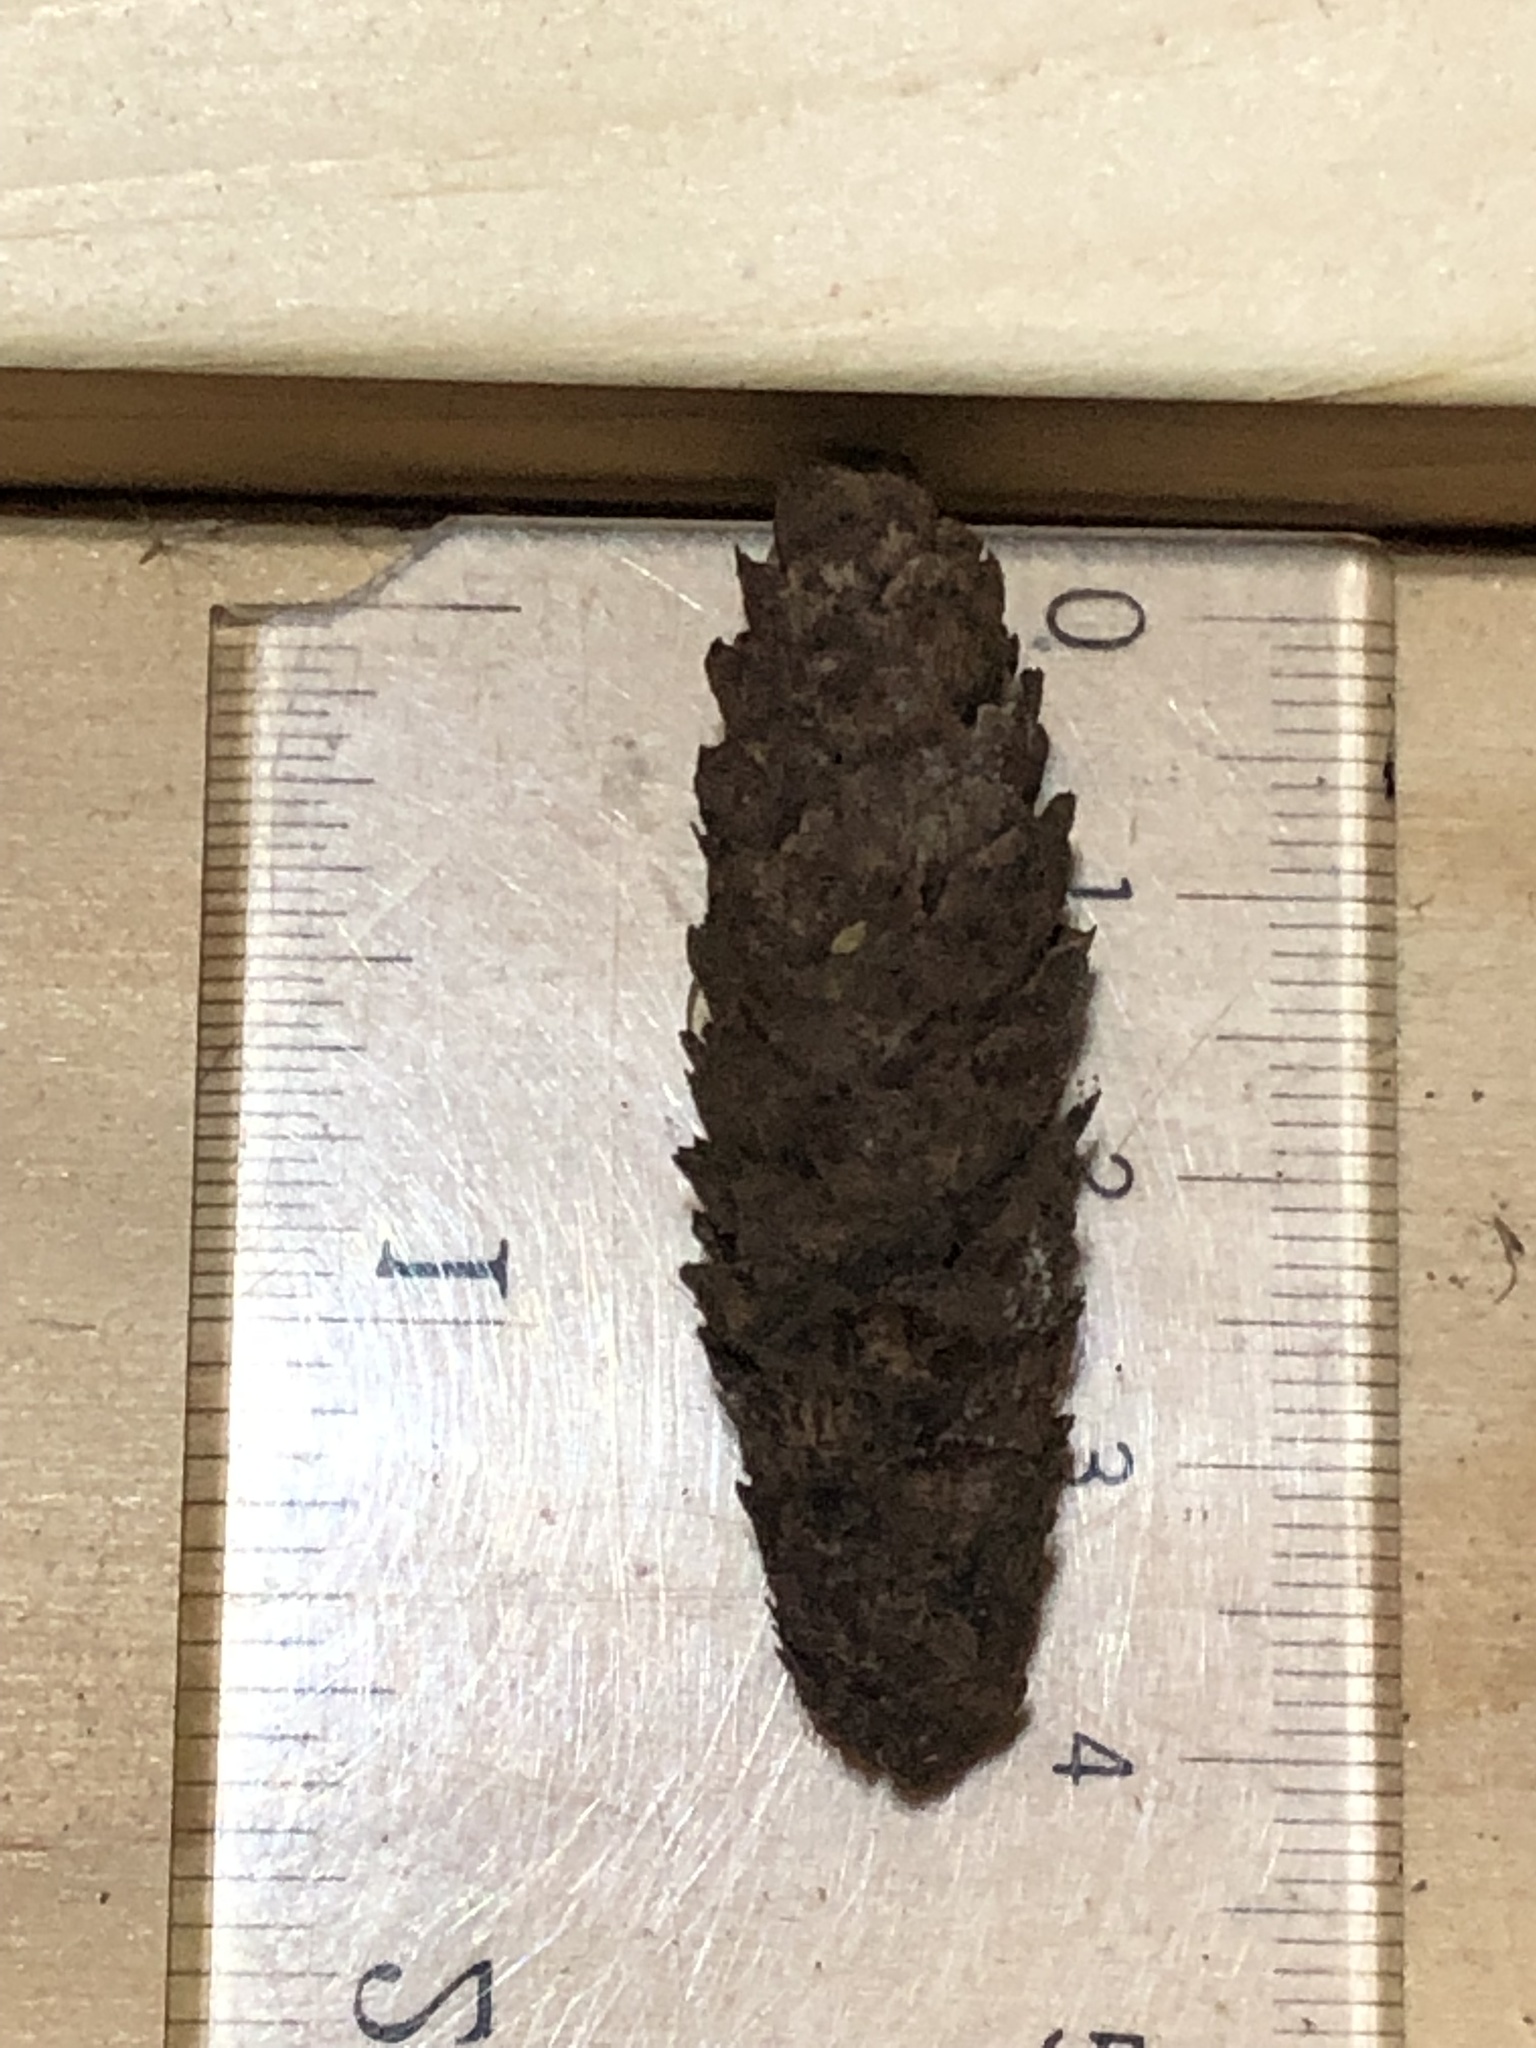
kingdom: Plantae
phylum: Tracheophyta
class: Pinopsida
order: Pinales
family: Pinaceae
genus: Picea
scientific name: Picea glauca
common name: White spruce
